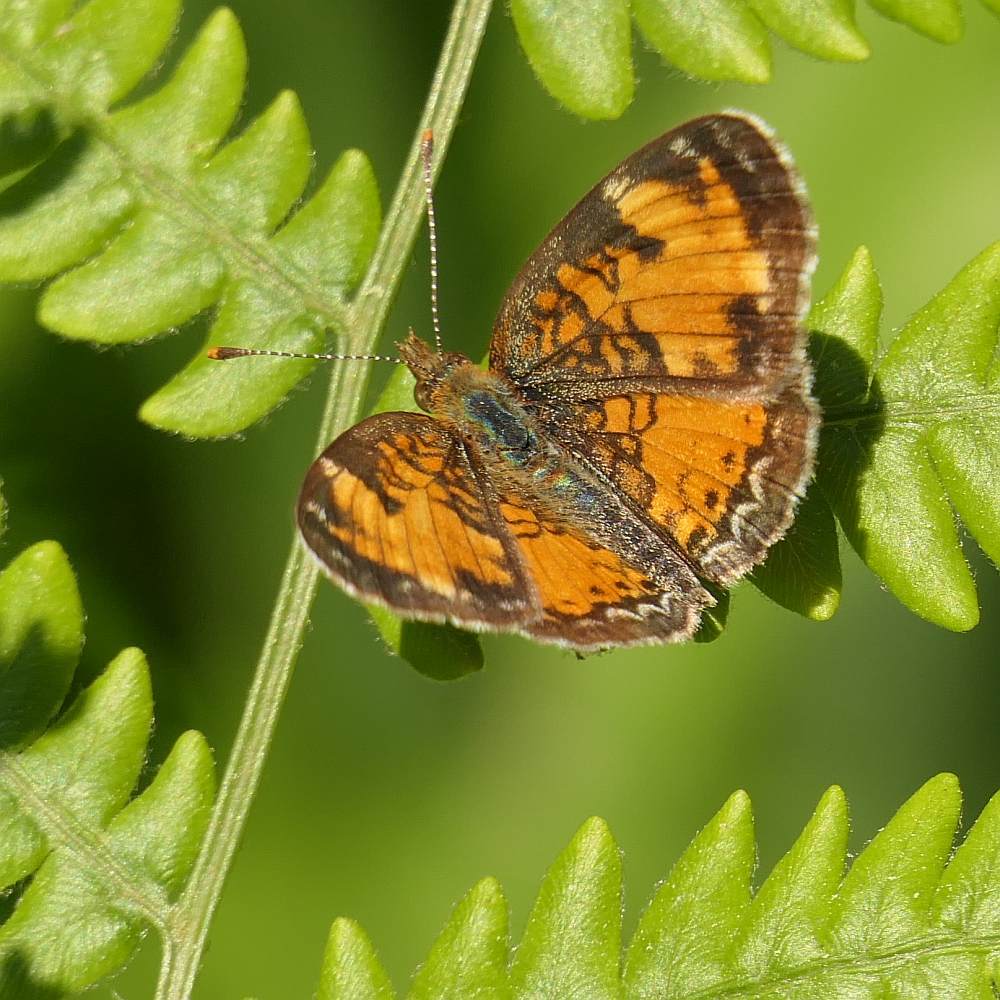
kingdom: Animalia
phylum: Arthropoda
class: Insecta
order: Lepidoptera
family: Nymphalidae
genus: Phyciodes
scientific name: Phyciodes tharos
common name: Pearl crescent
